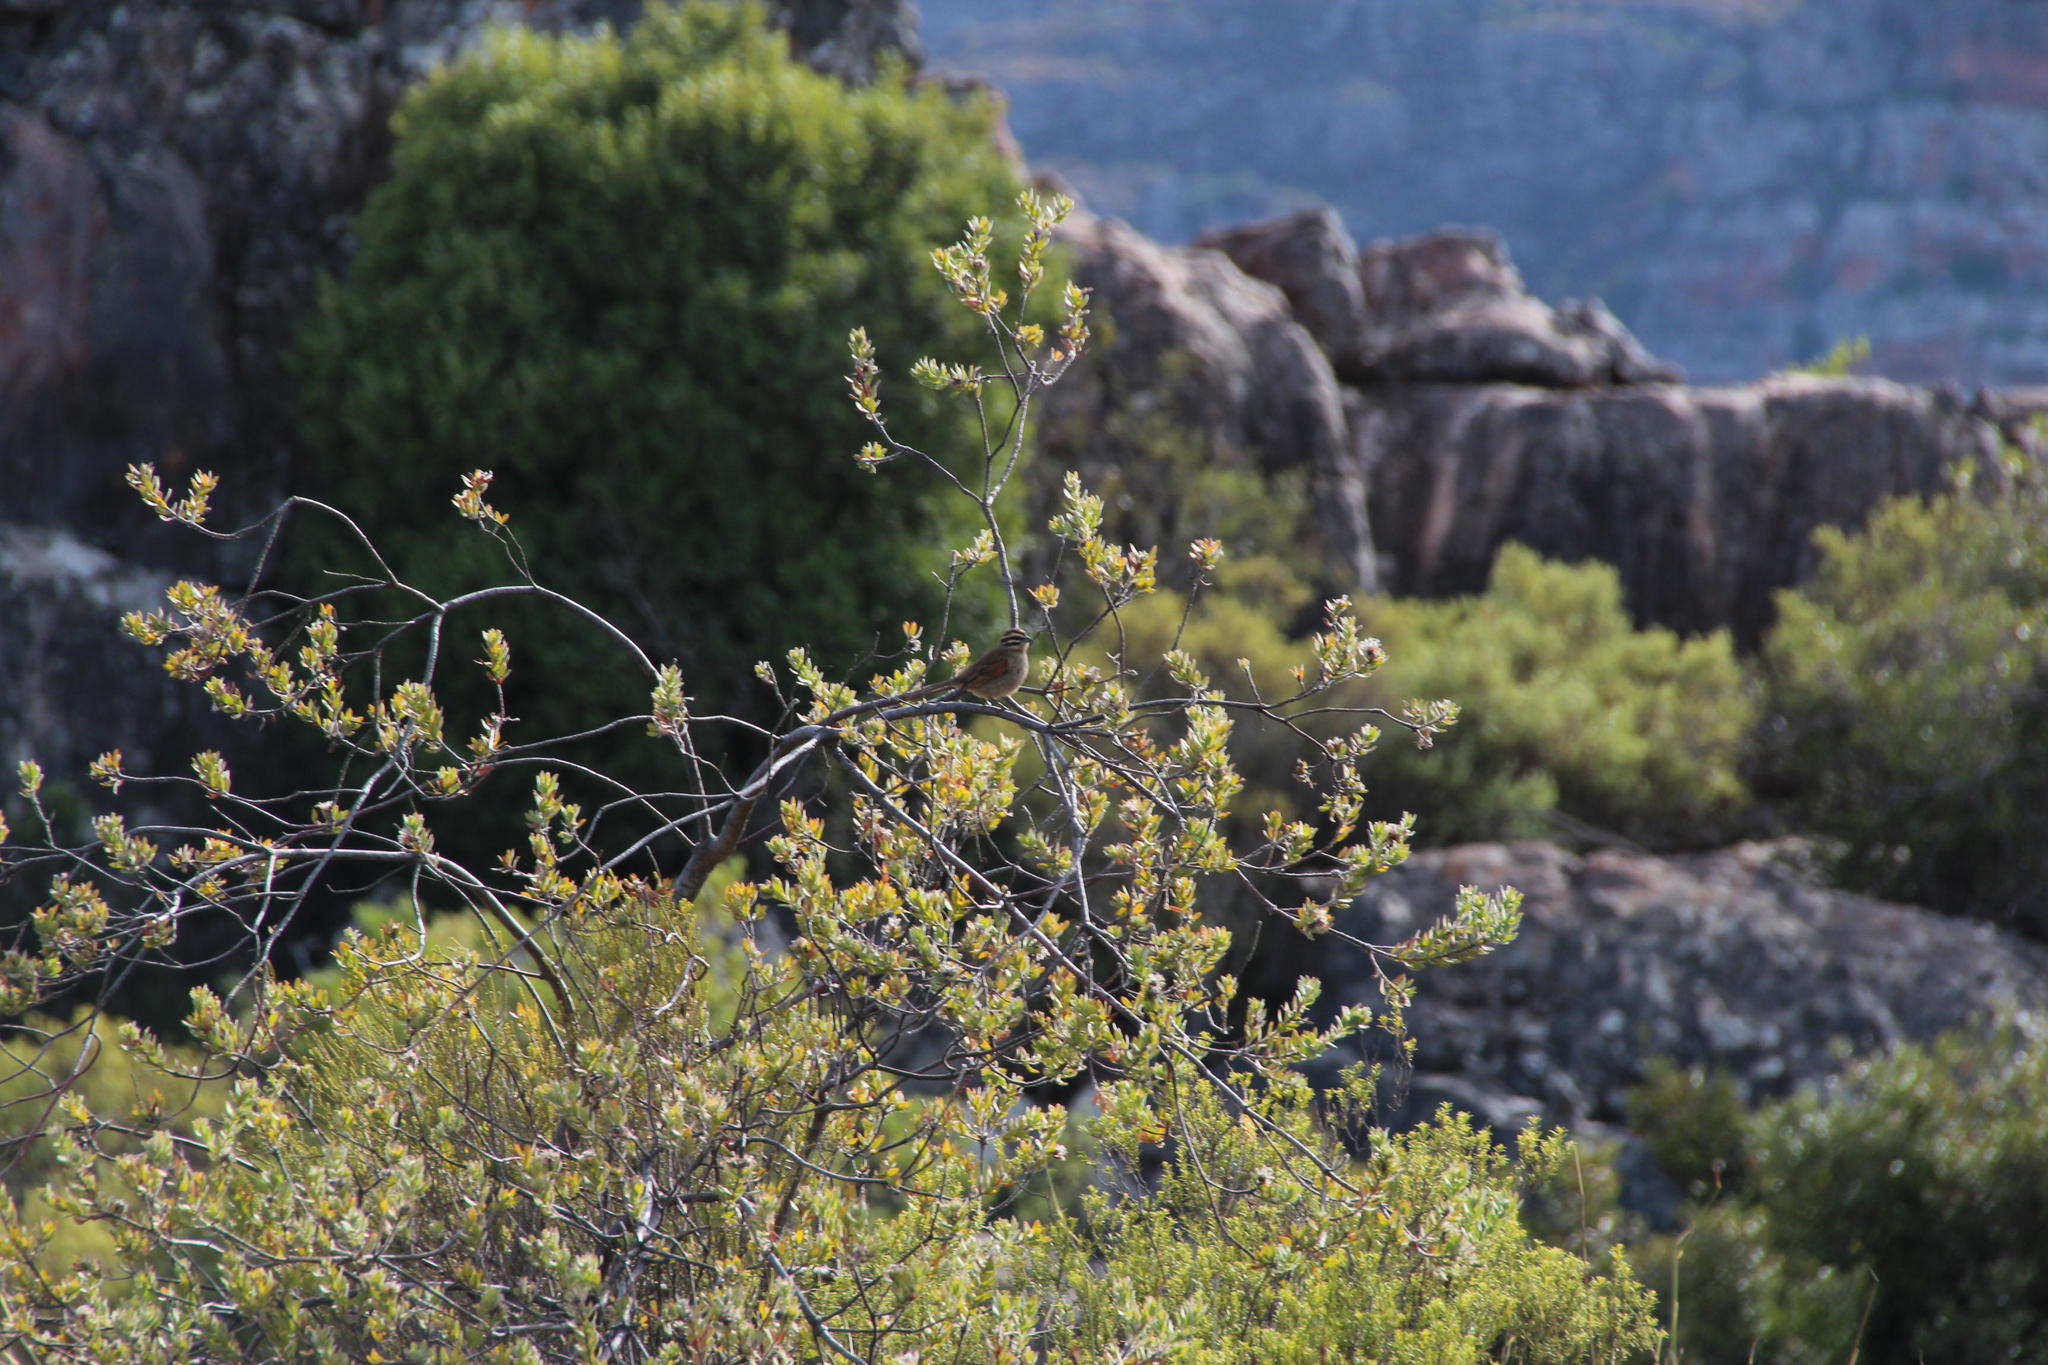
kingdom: Plantae
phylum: Tracheophyta
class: Magnoliopsida
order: Proteales
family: Proteaceae
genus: Leucospermum
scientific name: Leucospermum calligerum
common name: Arid pincushion
